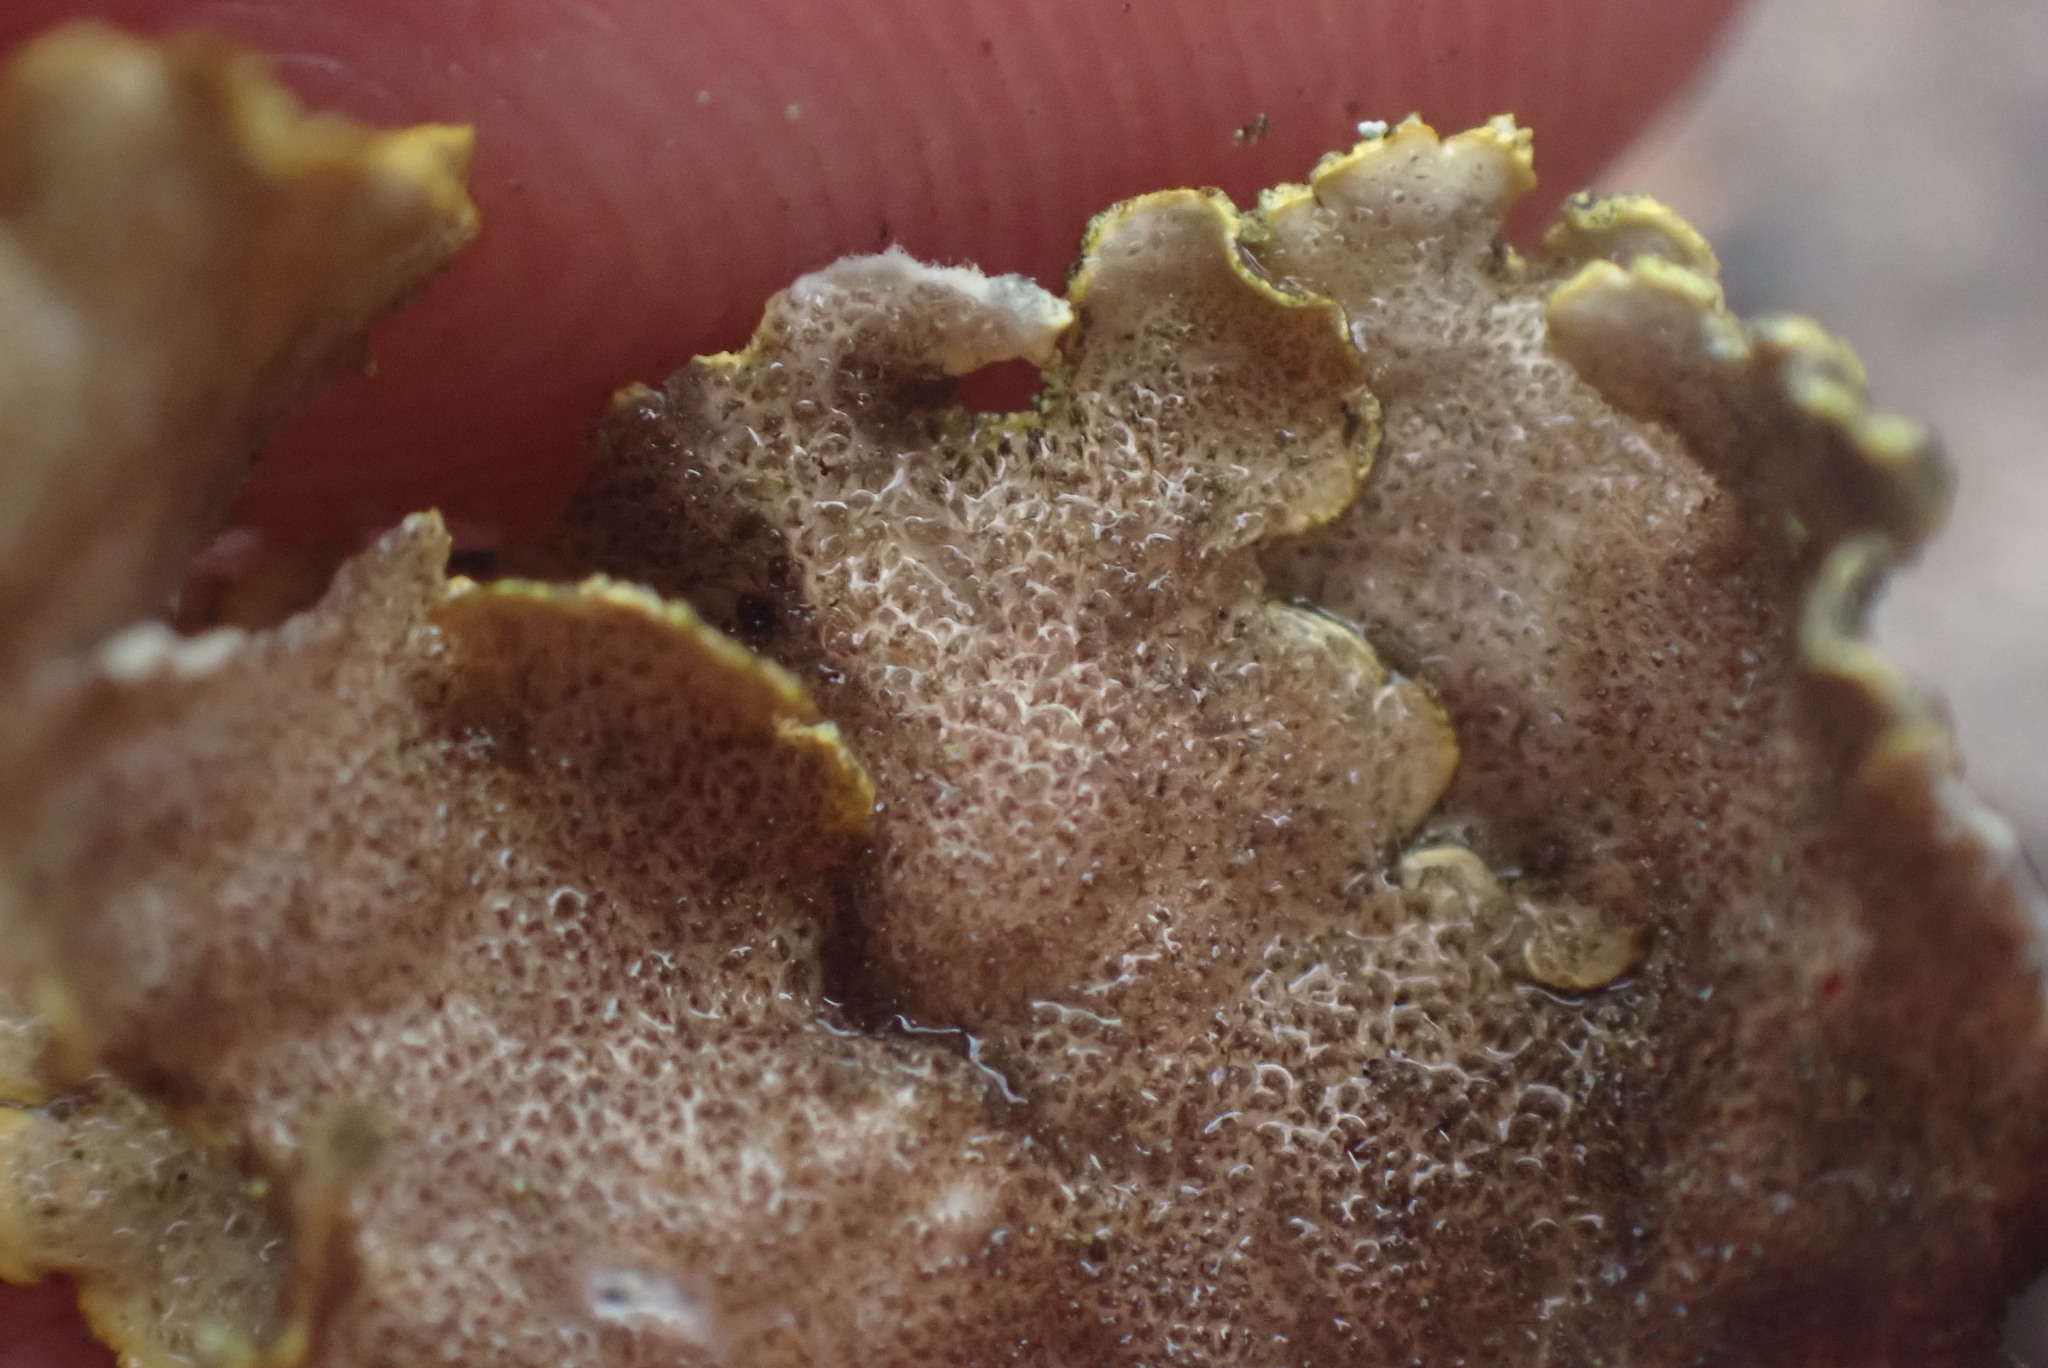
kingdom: Fungi
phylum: Ascomycota
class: Lecanoromycetes
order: Peltigerales
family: Lobariaceae
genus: Pseudocyphellaria
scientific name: Pseudocyphellaria citrina
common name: Golden specklebelly
